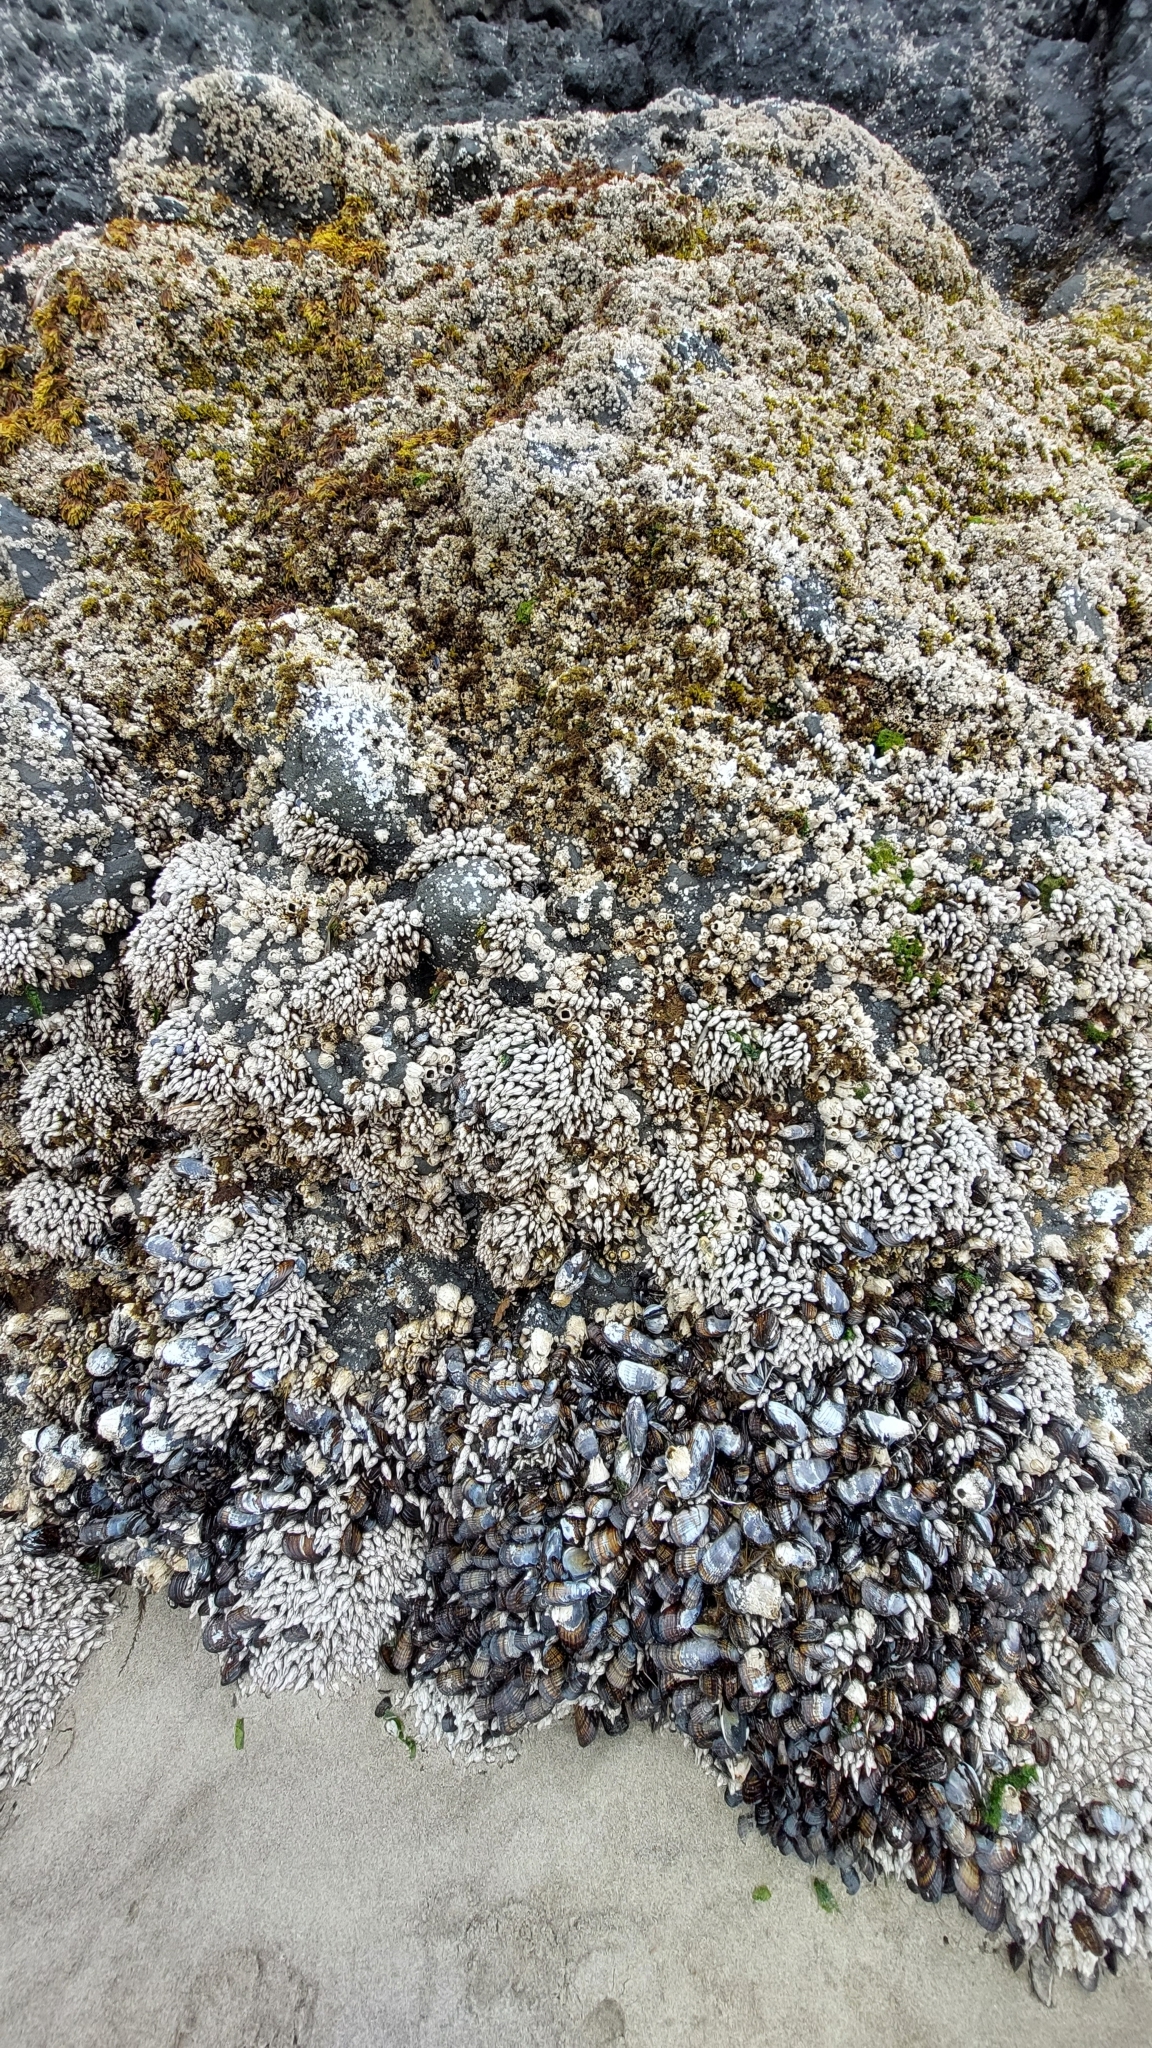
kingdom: Animalia
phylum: Arthropoda
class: Maxillopoda
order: Pedunculata
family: Pollicipedidae
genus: Pollicipes
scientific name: Pollicipes polymerus
